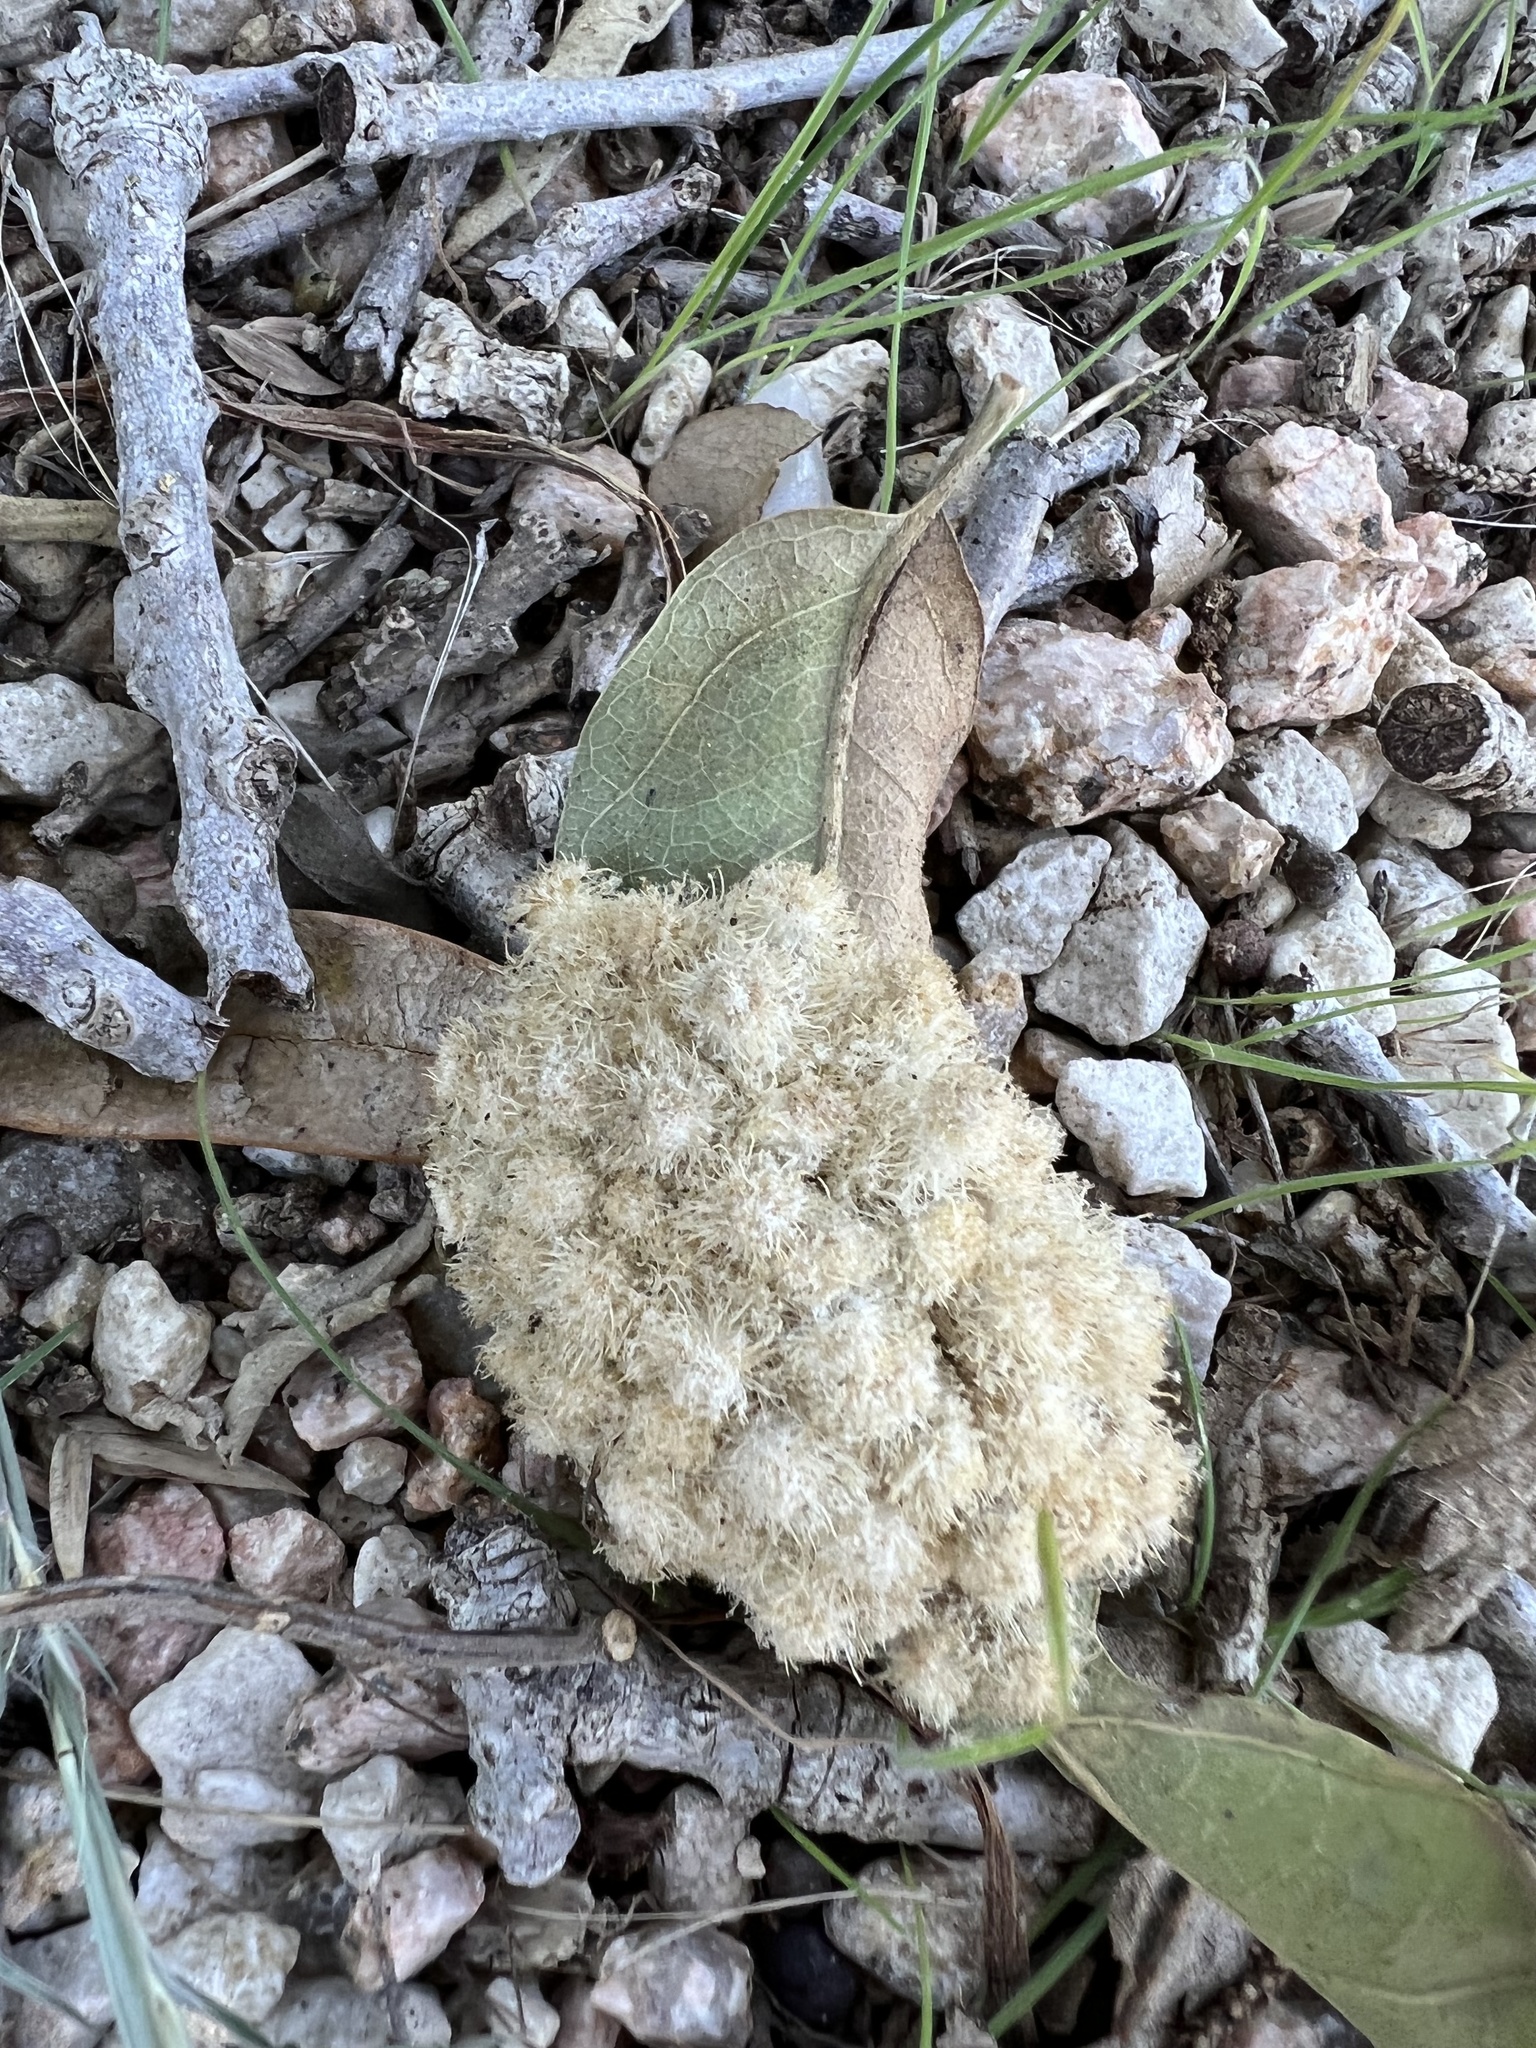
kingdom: Animalia
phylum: Arthropoda
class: Insecta
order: Hymenoptera
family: Cynipidae
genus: Andricus
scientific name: Andricus
